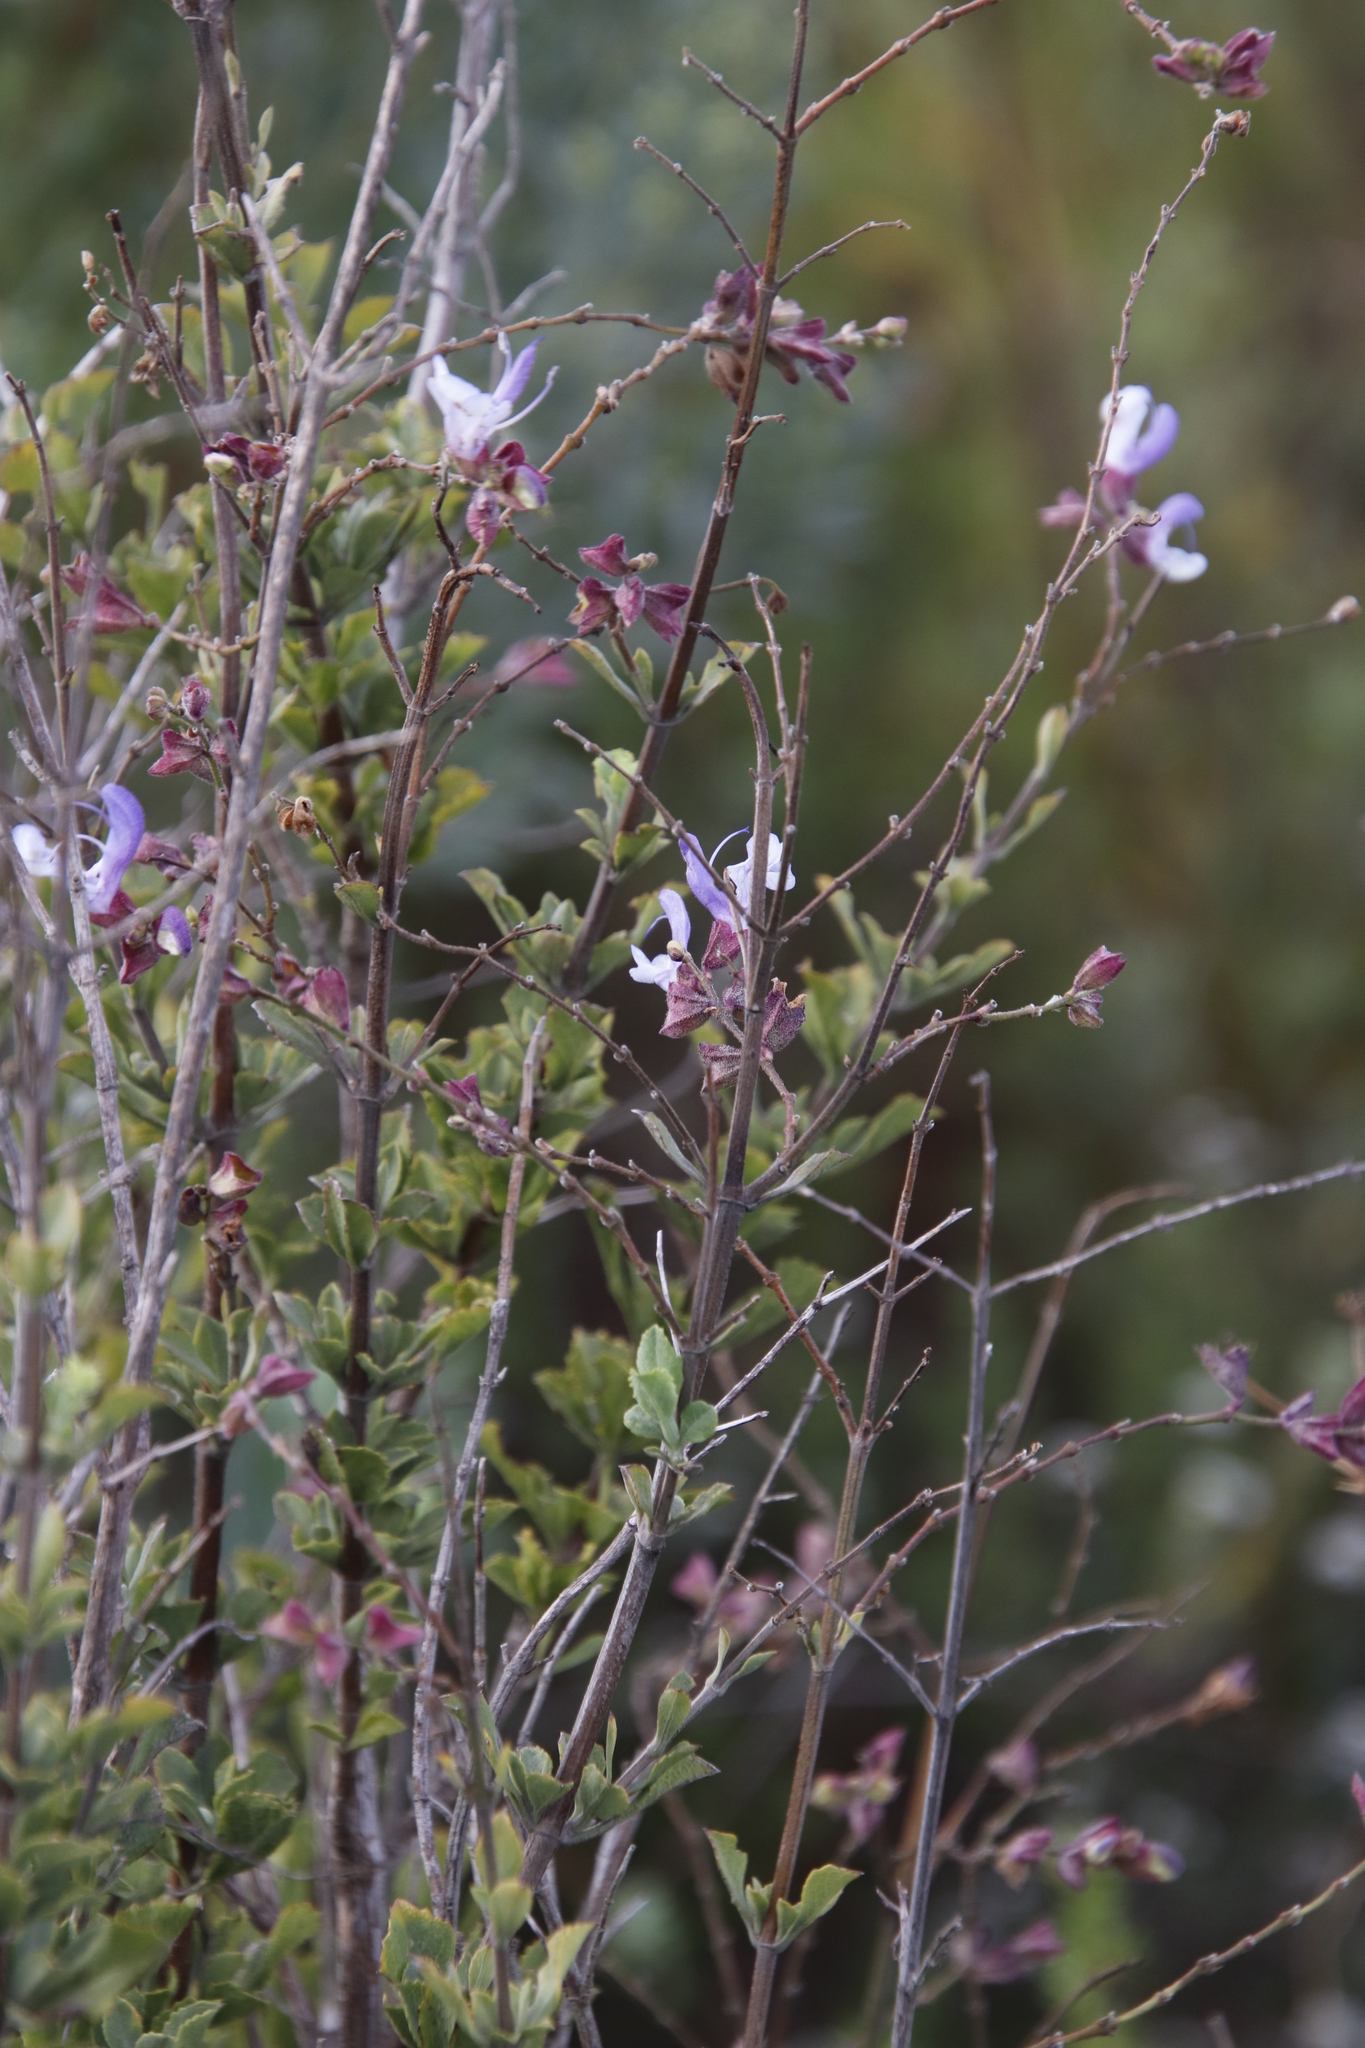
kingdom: Plantae
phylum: Tracheophyta
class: Magnoliopsida
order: Lamiales
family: Lamiaceae
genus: Salvia
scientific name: Salvia chamelaeagnea
